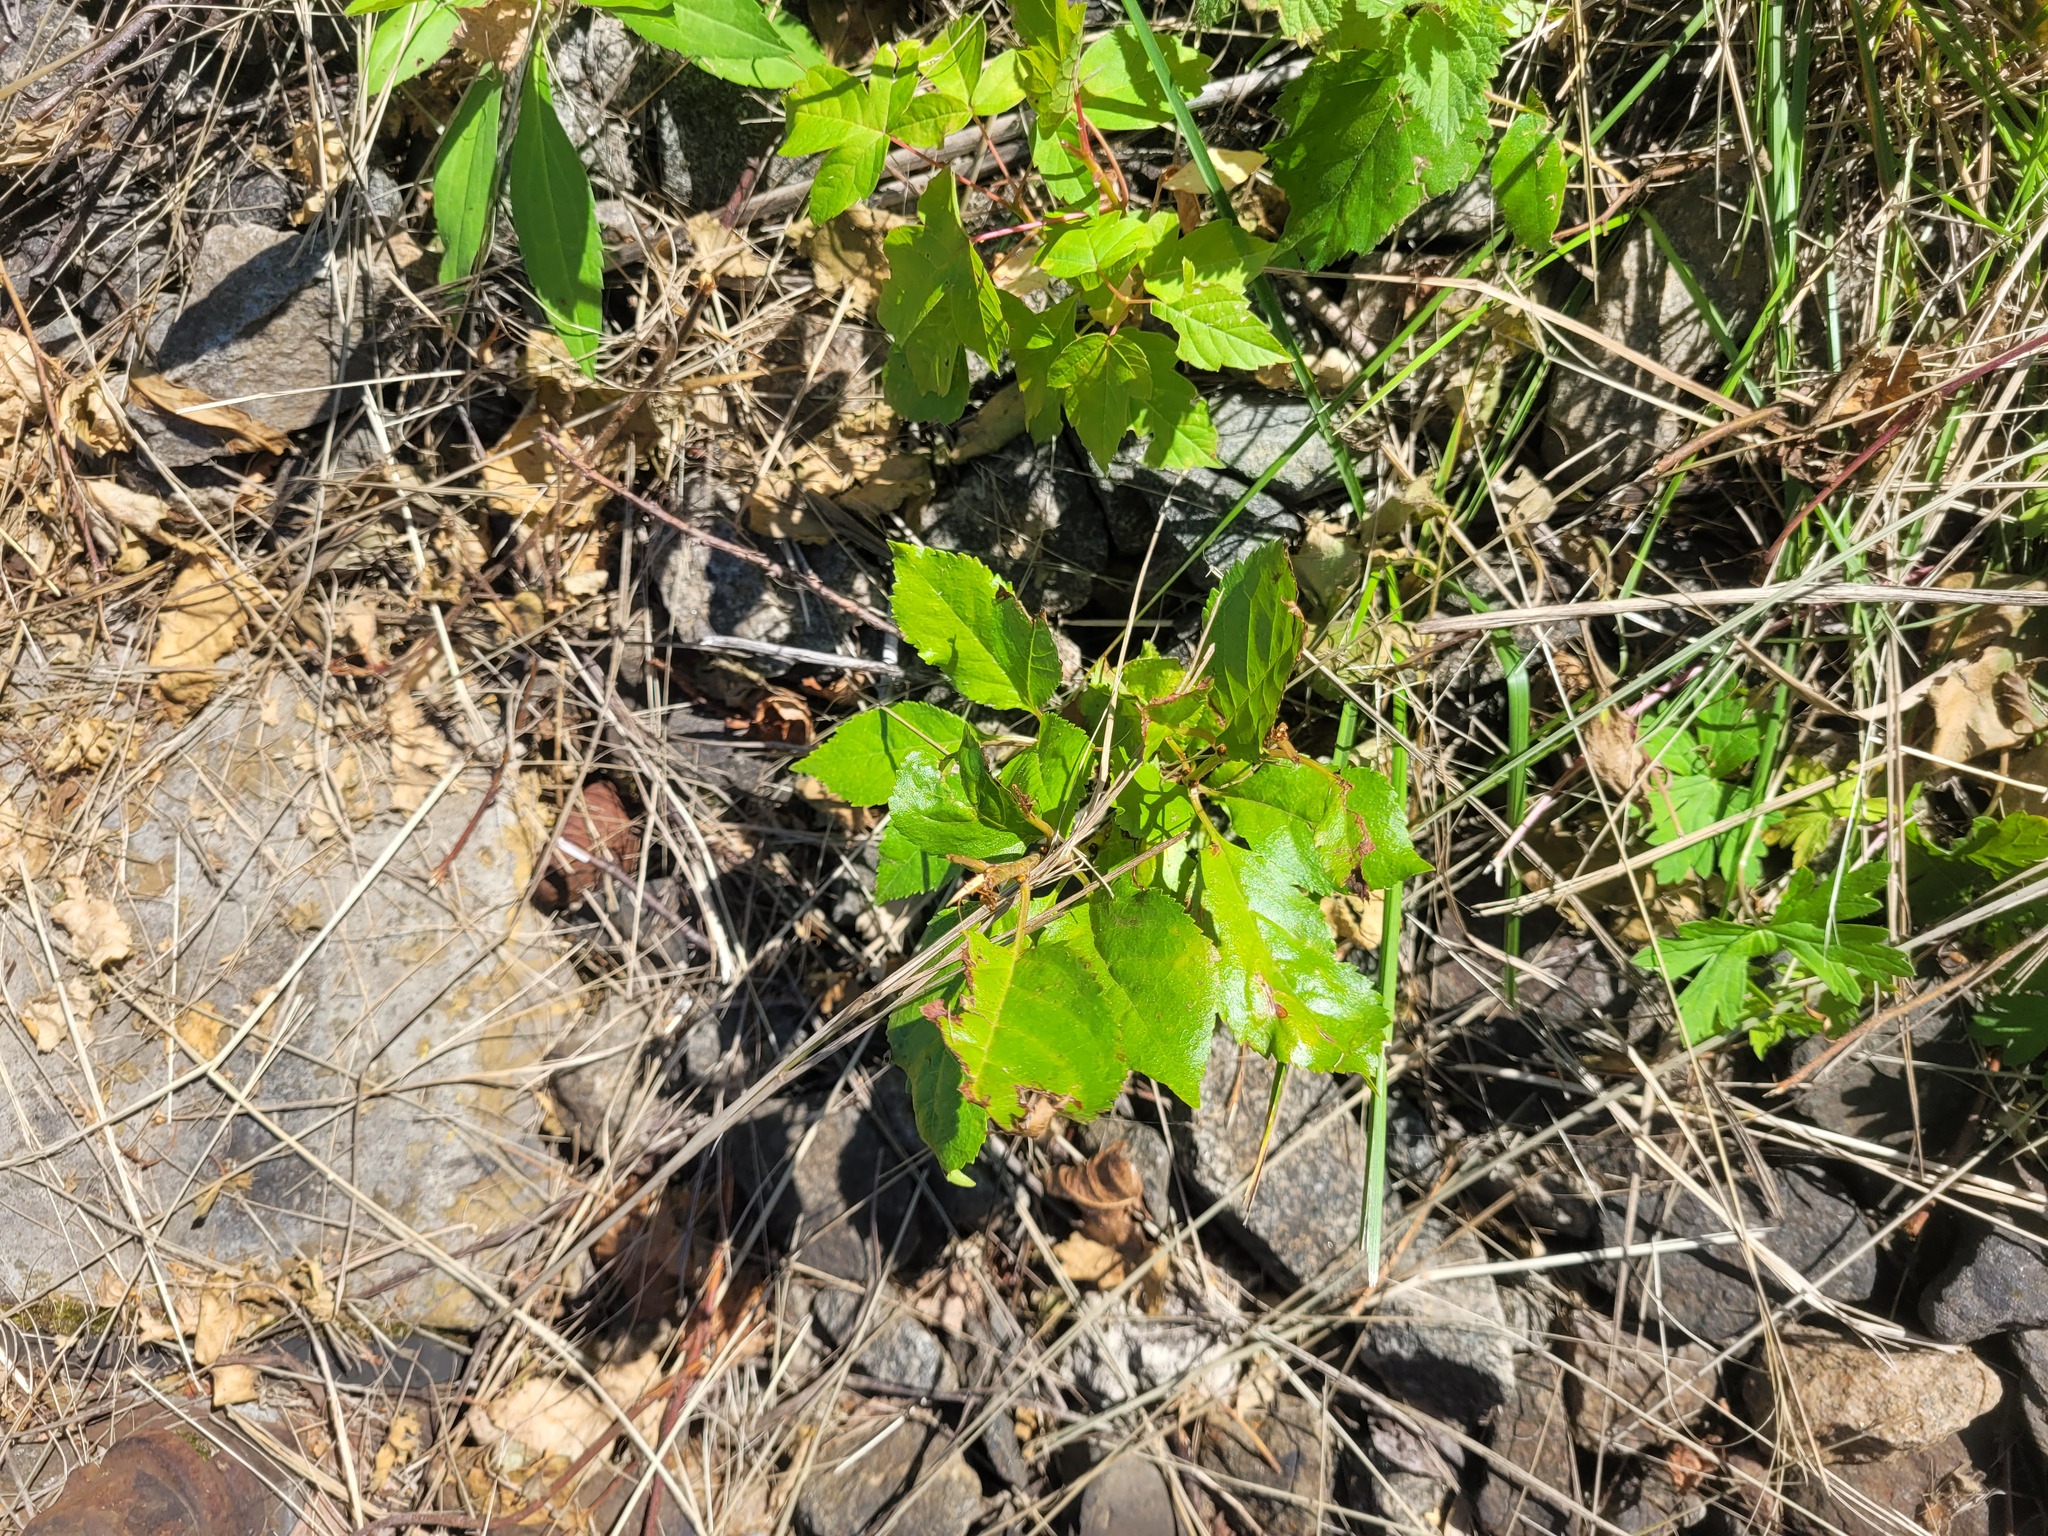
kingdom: Plantae
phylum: Tracheophyta
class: Magnoliopsida
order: Rosales
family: Rosaceae
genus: Prunus
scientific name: Prunus cerasus
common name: Morello cherry
